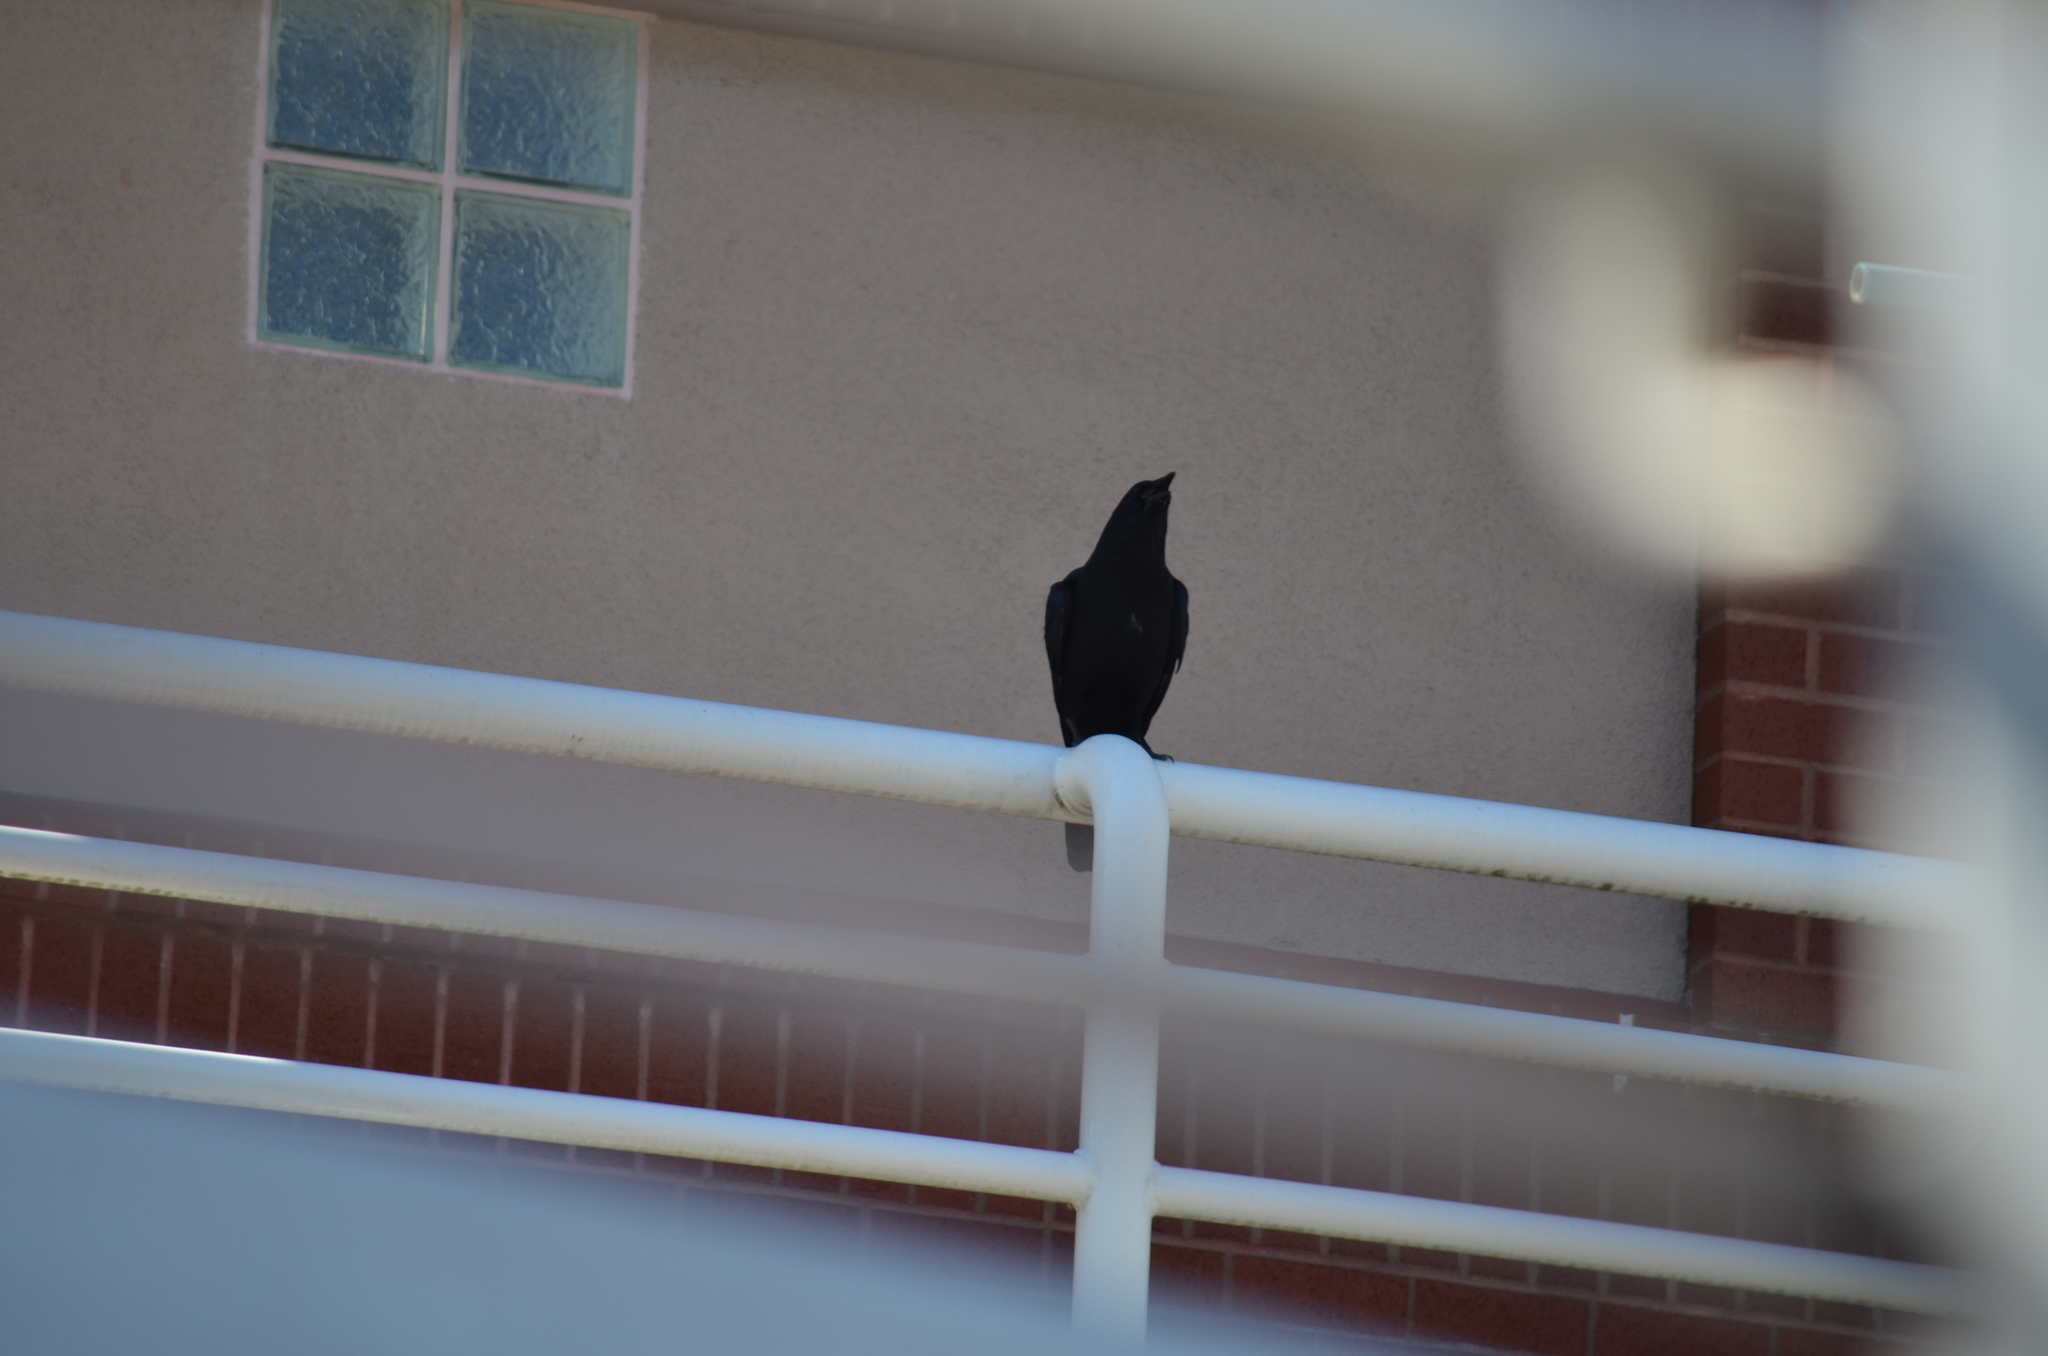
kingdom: Animalia
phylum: Chordata
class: Aves
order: Passeriformes
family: Corvidae
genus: Corvus
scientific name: Corvus brachyrhynchos
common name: American crow
